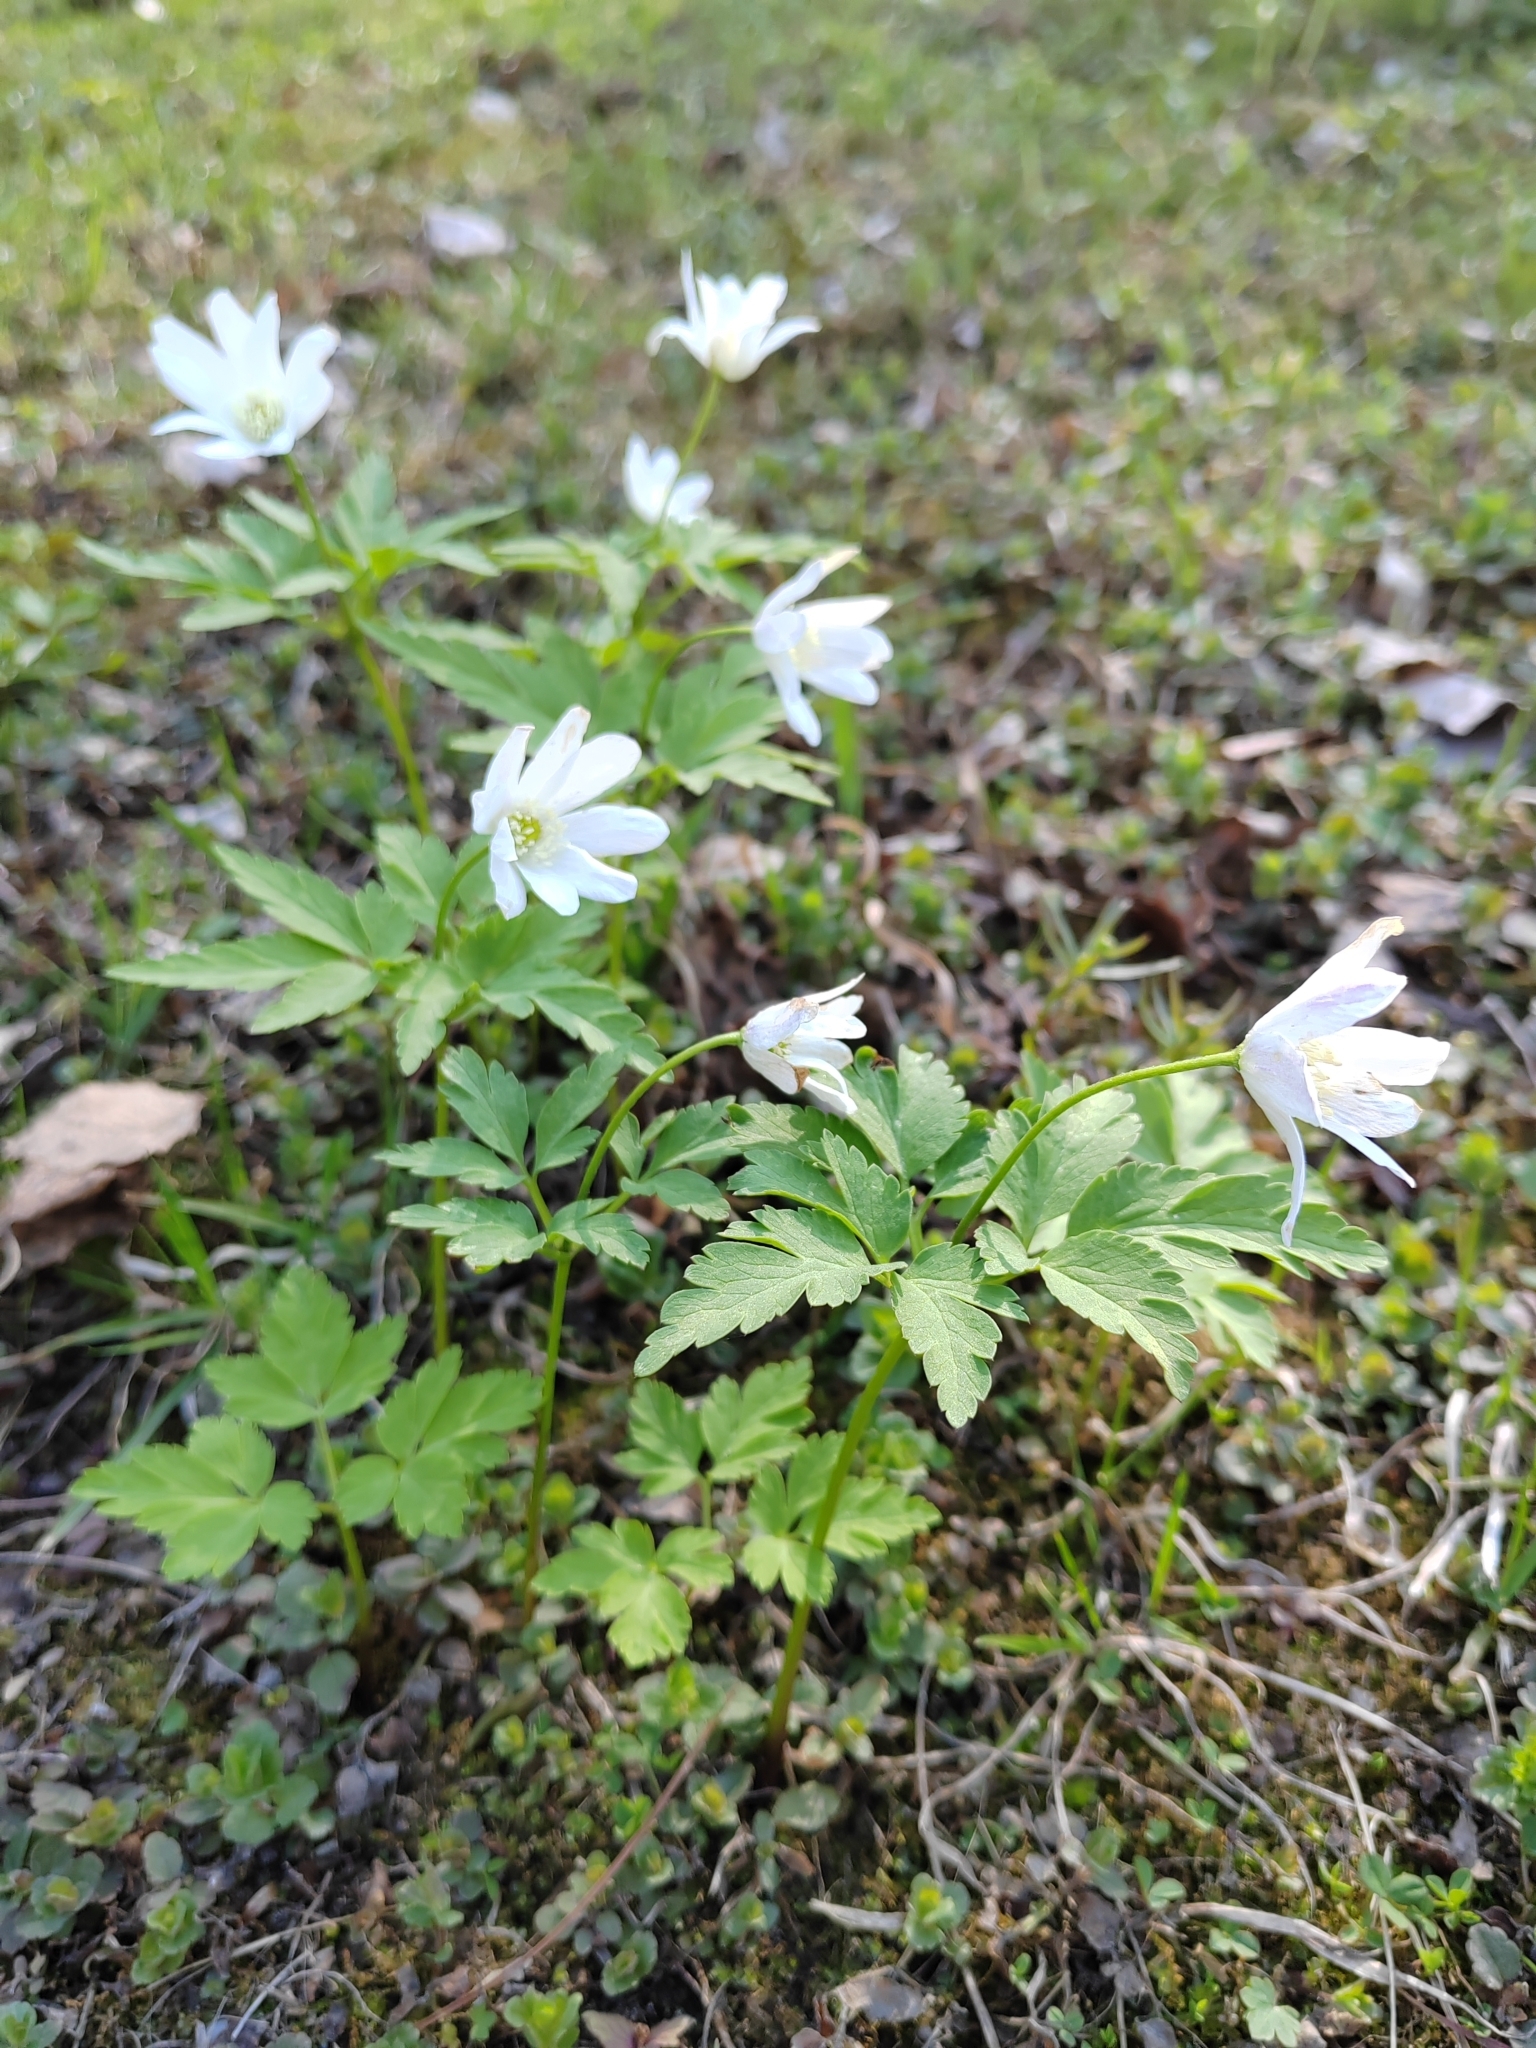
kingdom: Plantae
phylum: Tracheophyta
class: Magnoliopsida
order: Ranunculales
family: Ranunculaceae
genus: Anemone
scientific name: Anemone altaica
